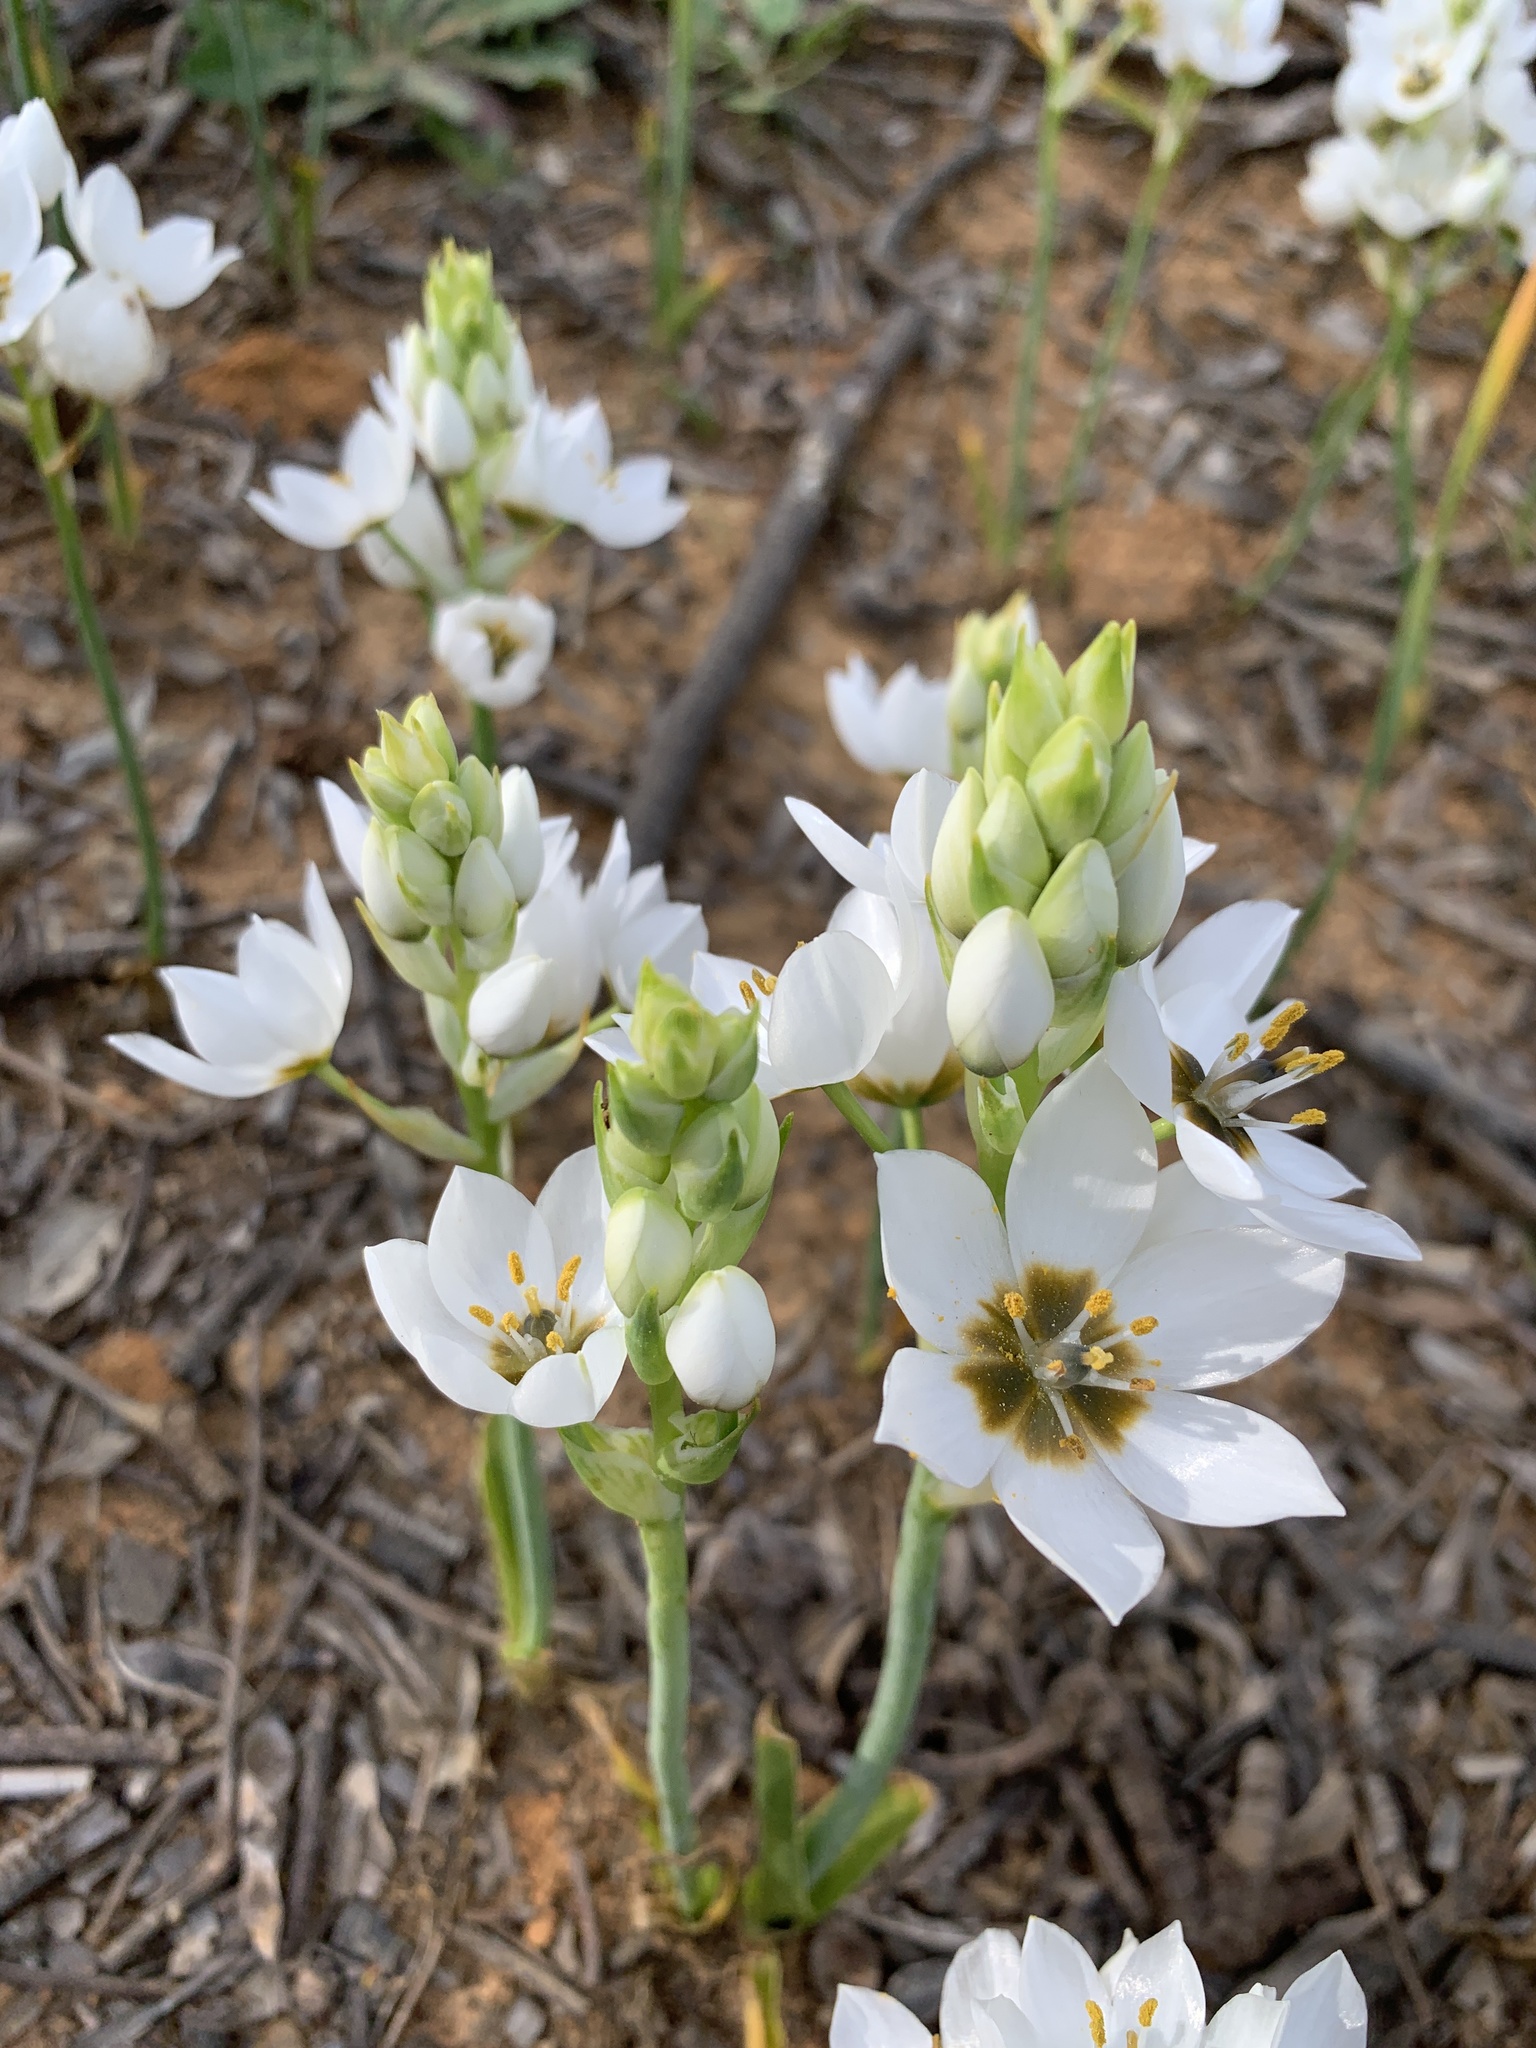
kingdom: Plantae
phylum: Tracheophyta
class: Liliopsida
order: Asparagales
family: Asparagaceae
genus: Ornithogalum
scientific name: Ornithogalum thyrsoides
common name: Chincherinchee
